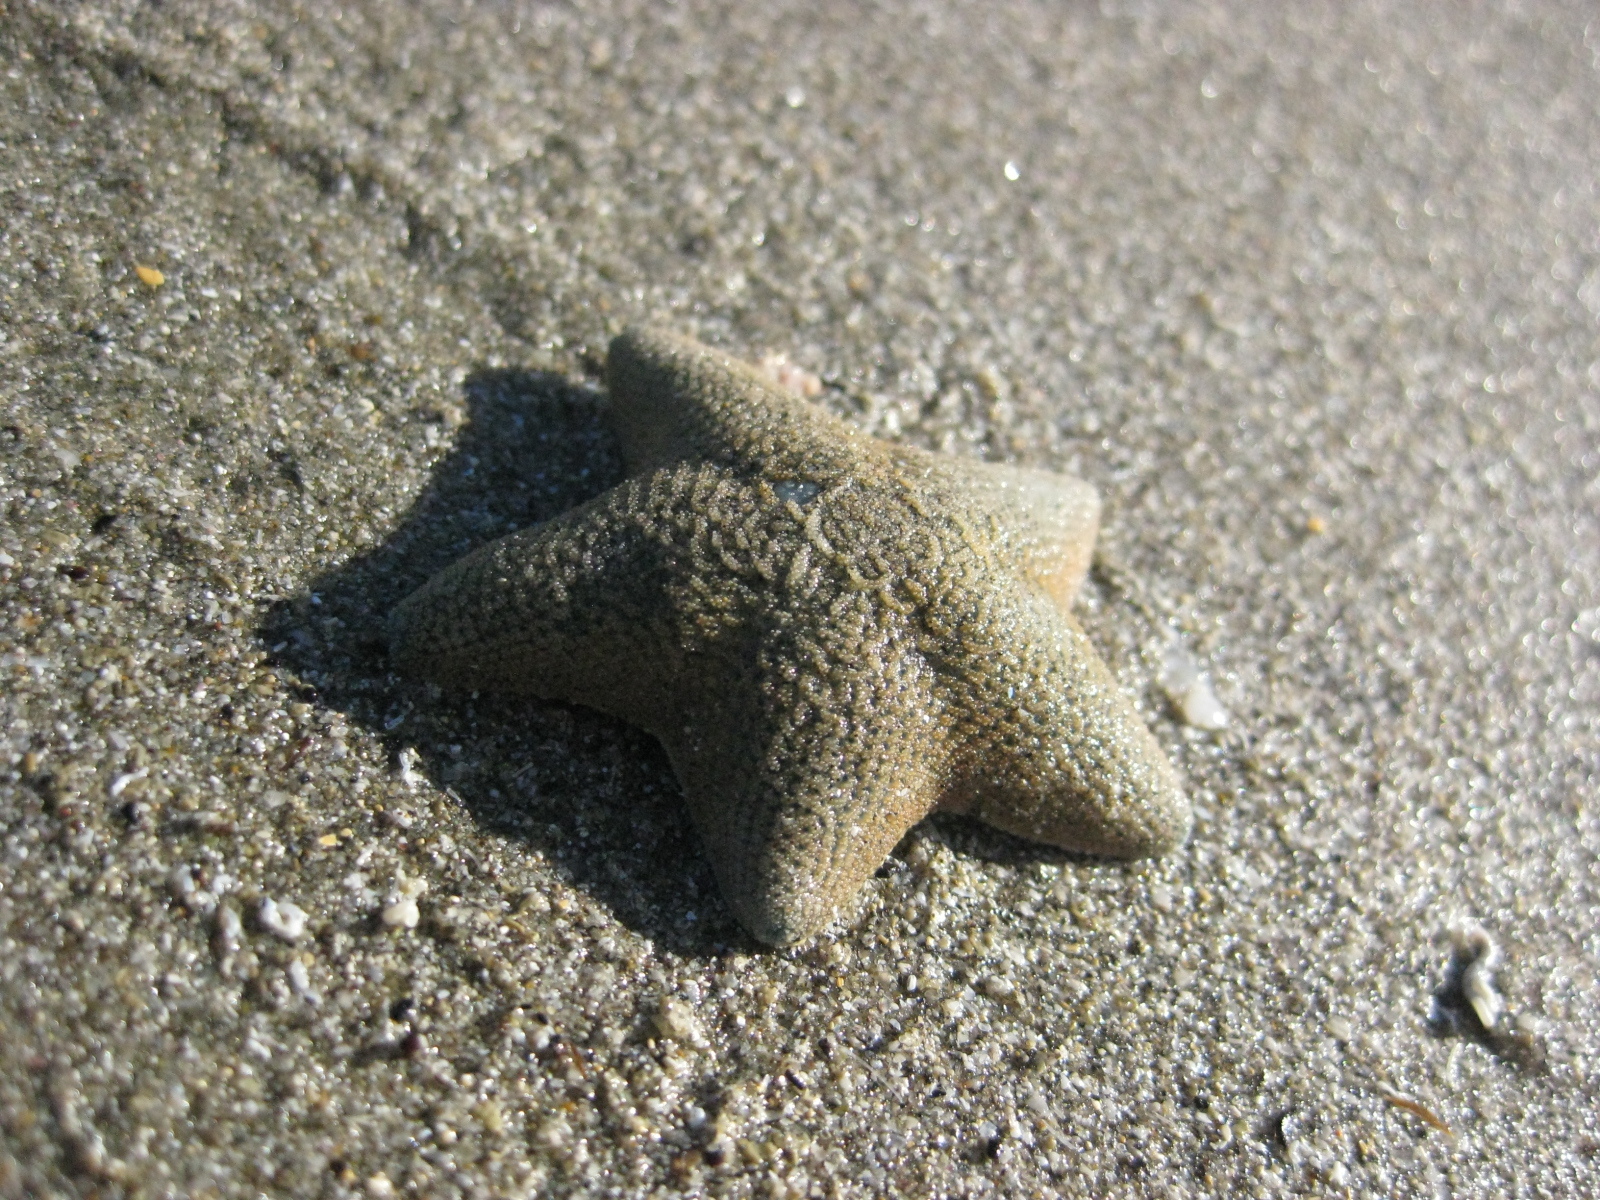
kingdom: Animalia
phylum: Echinodermata
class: Asteroidea
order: Valvatida
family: Asterinidae
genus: Patiriella
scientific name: Patiriella regularis
